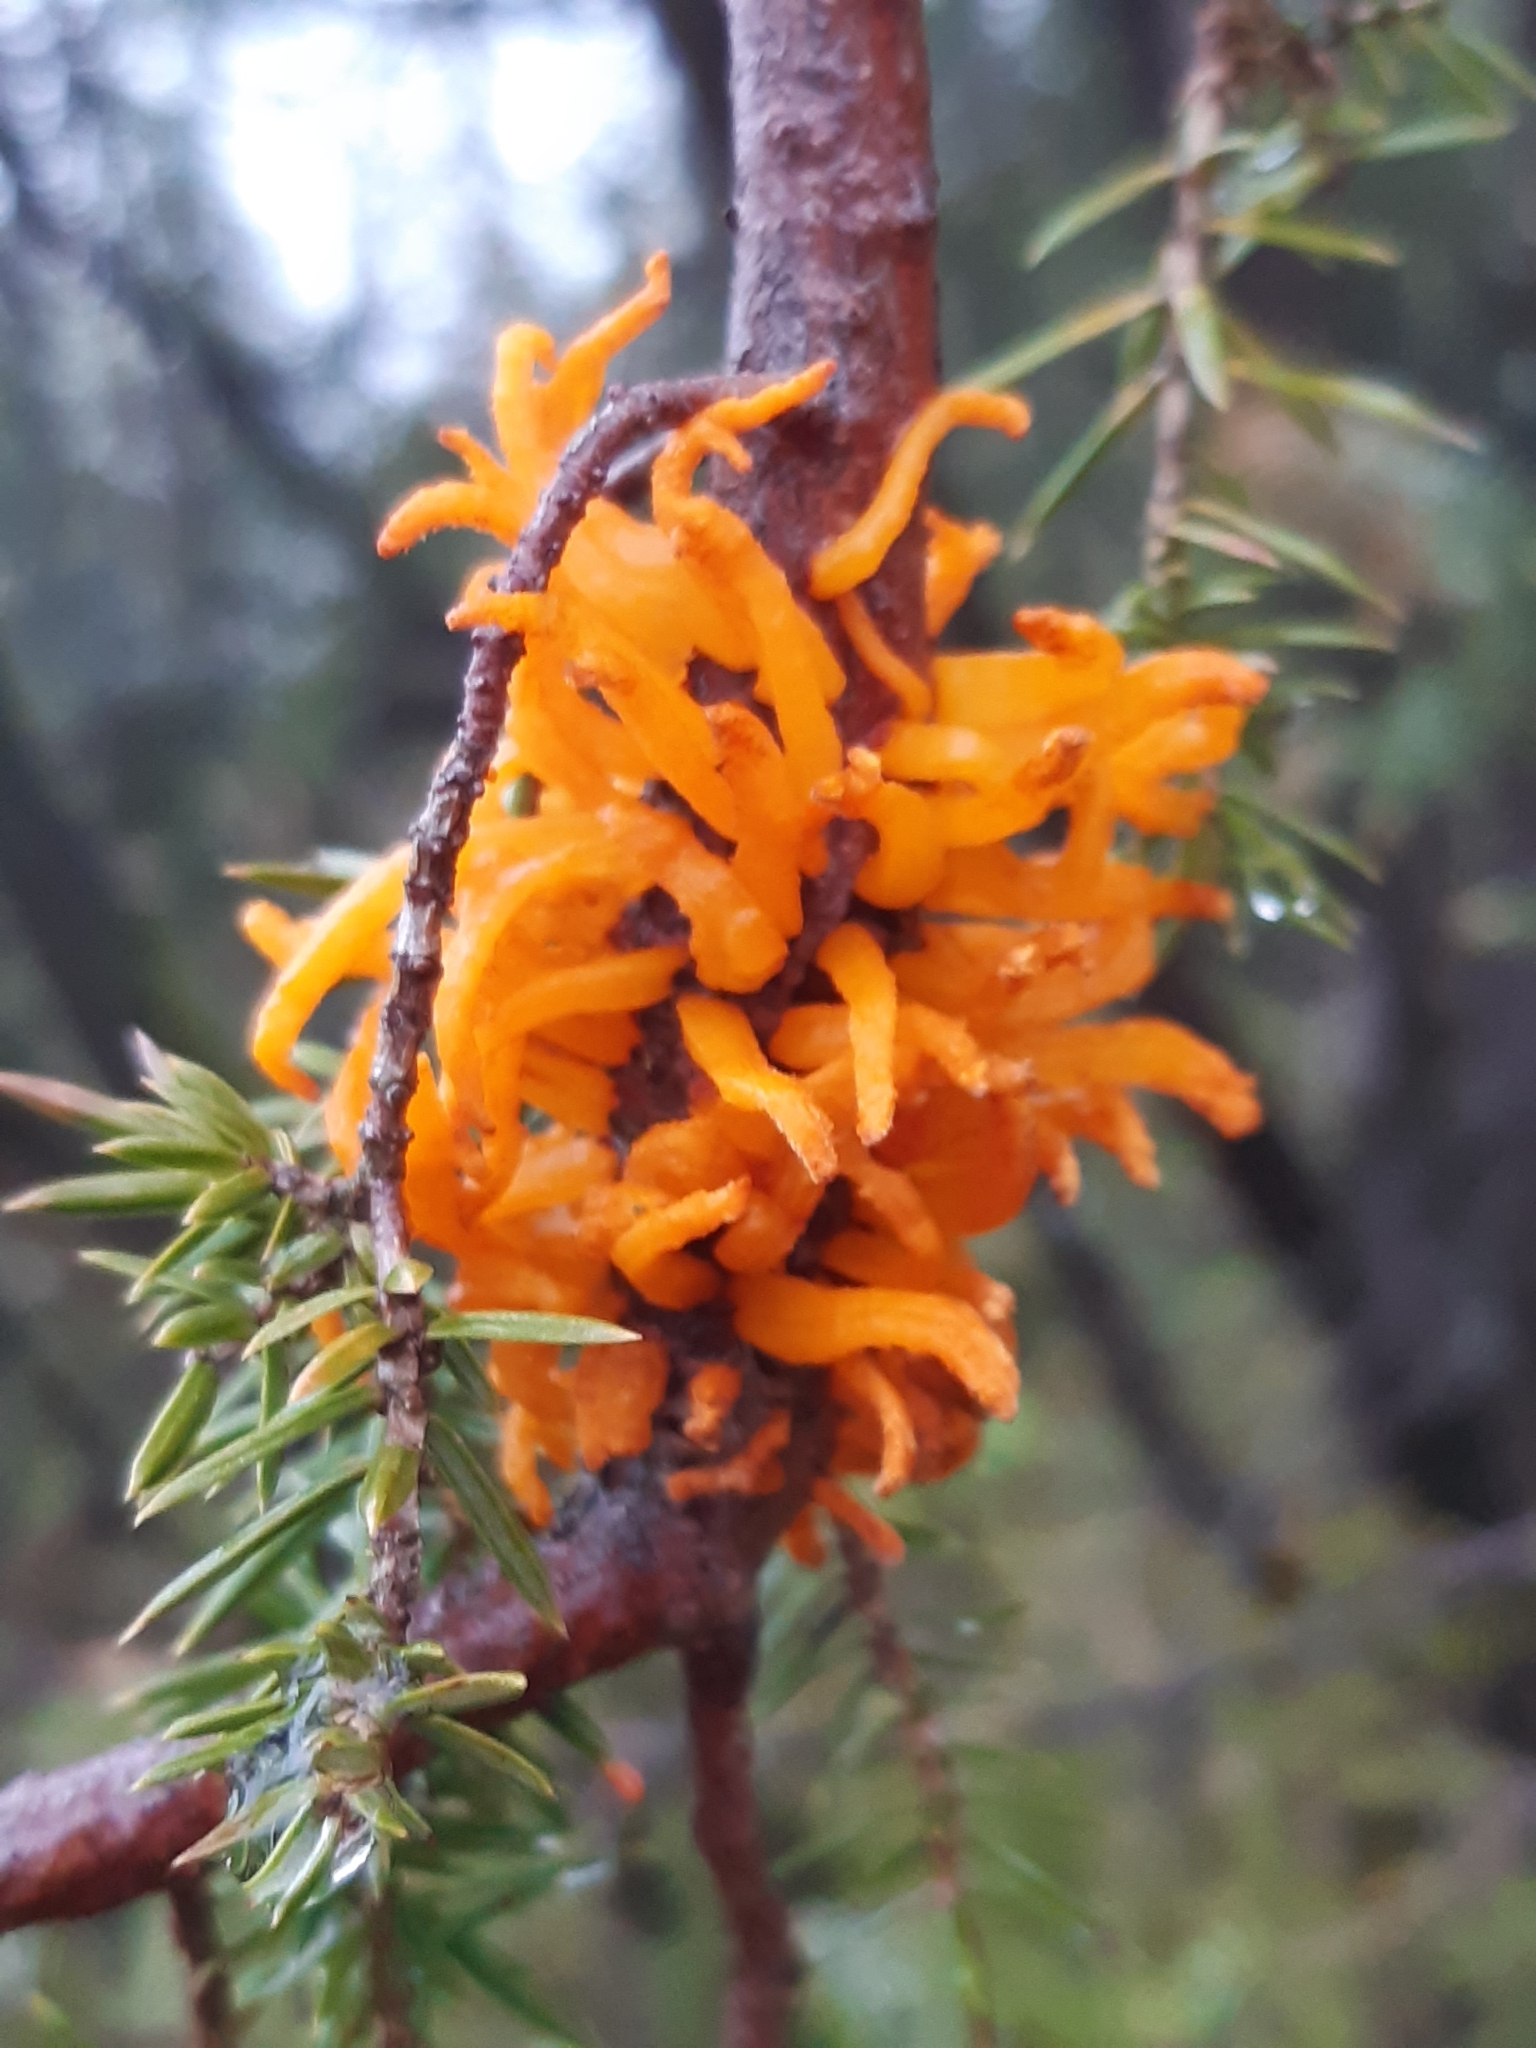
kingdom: Fungi
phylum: Basidiomycota
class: Pucciniomycetes
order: Pucciniales
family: Gymnosporangiaceae
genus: Gymnosporangium
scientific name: Gymnosporangium clavariiforme
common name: Tongues of fire
